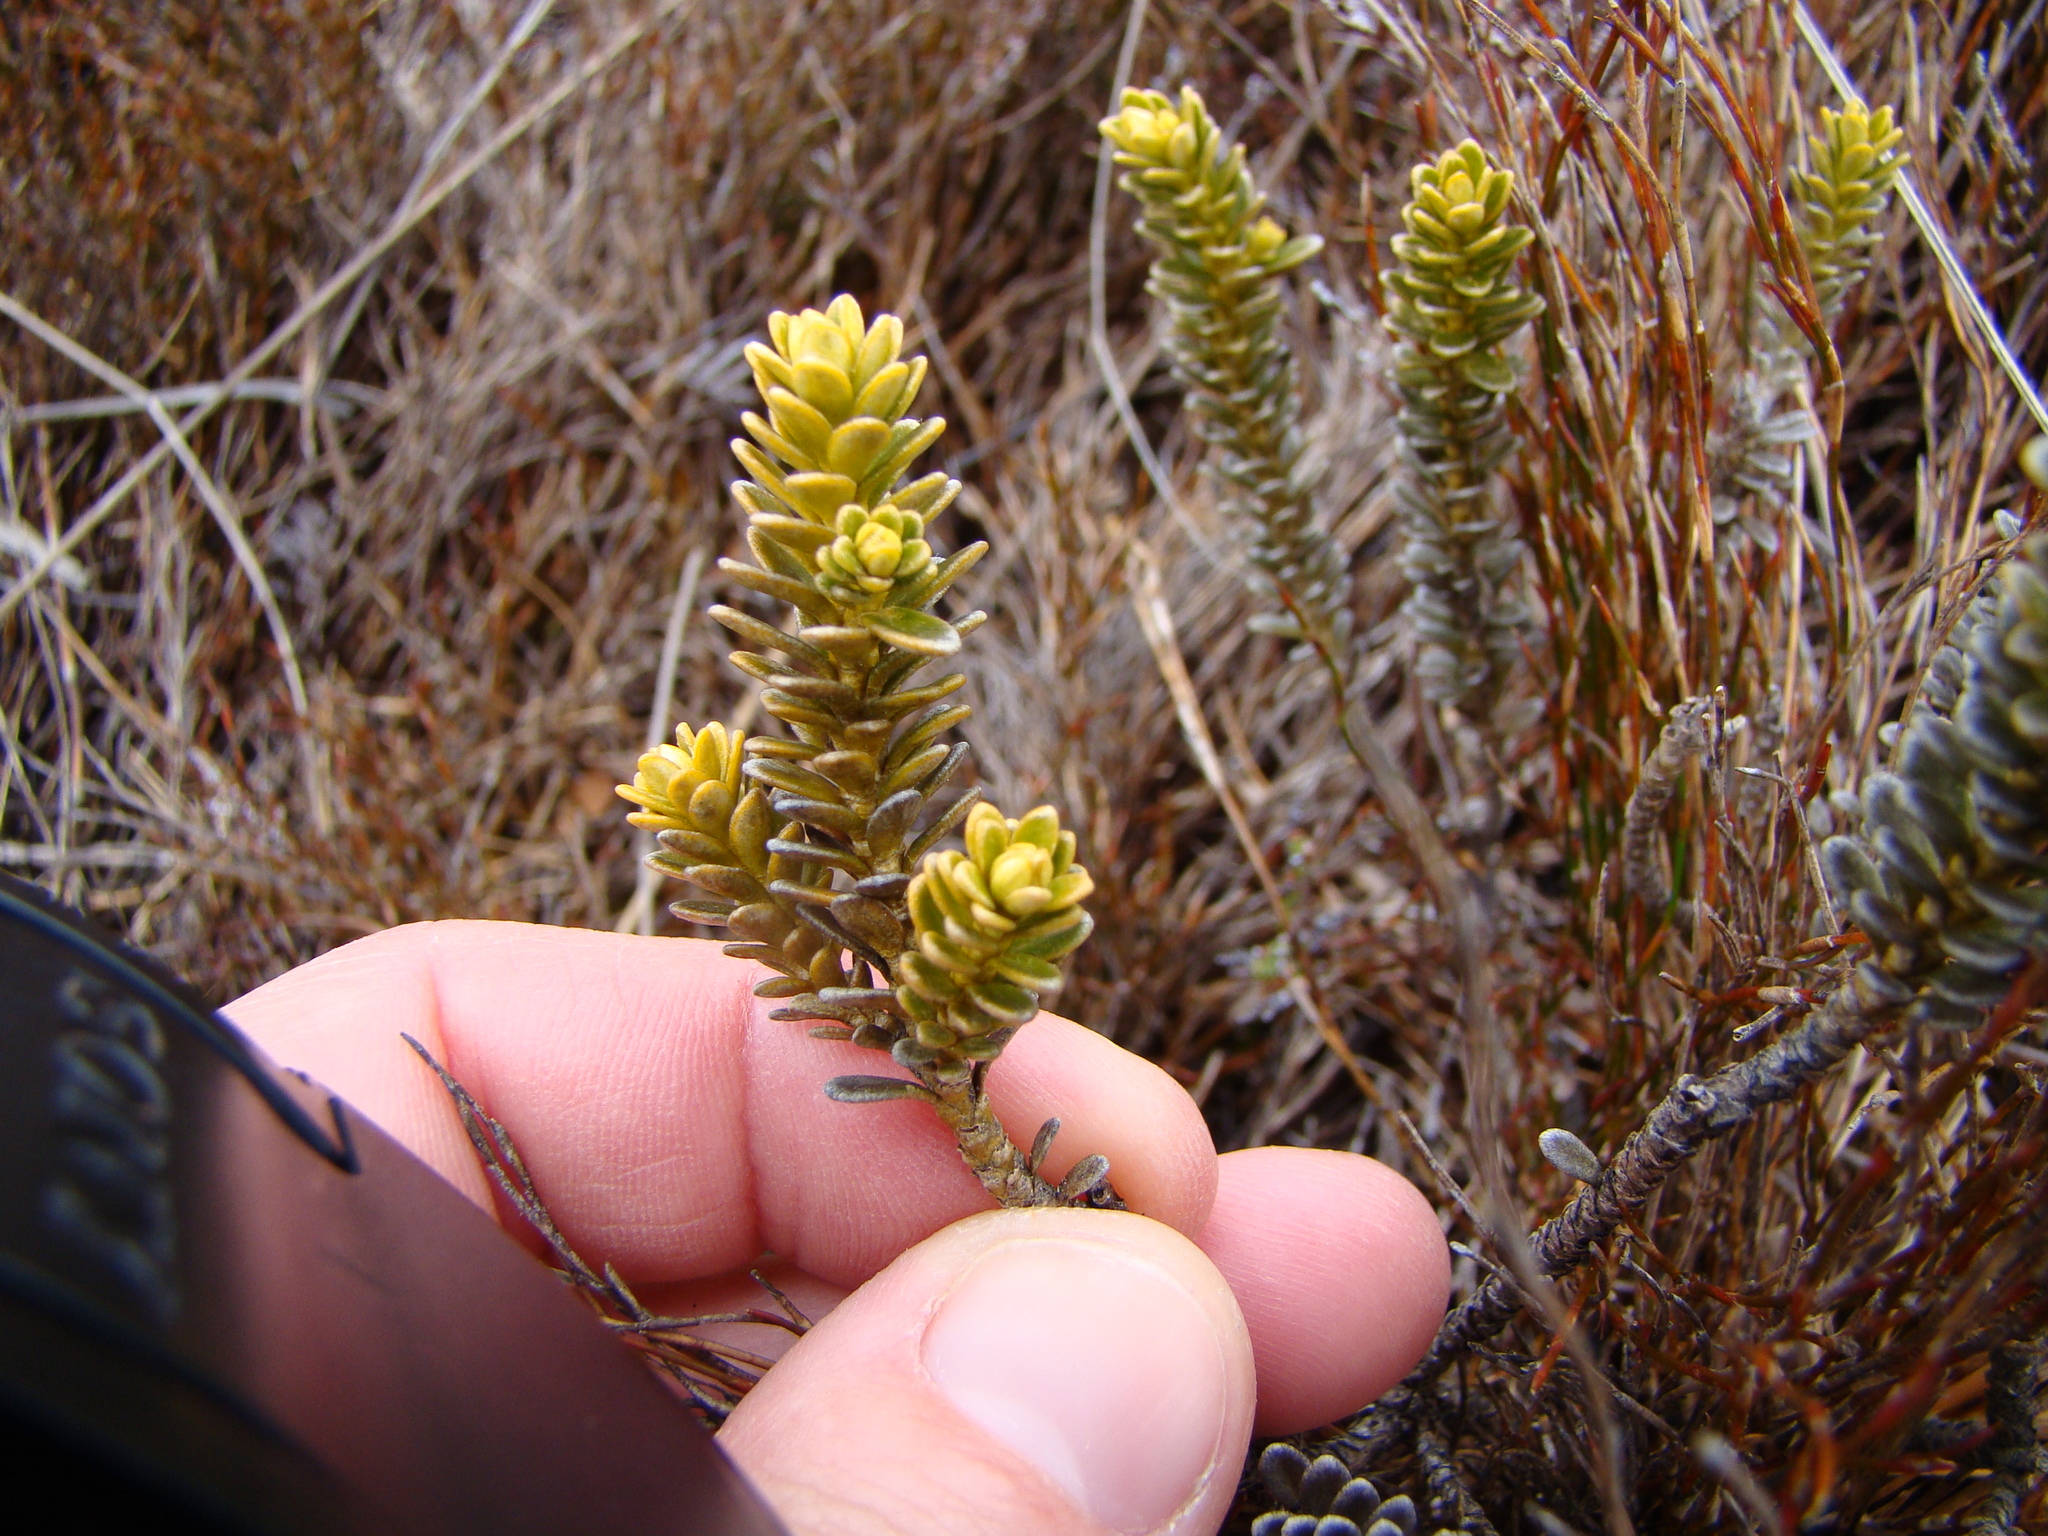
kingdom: Plantae
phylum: Tracheophyta
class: Magnoliopsida
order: Asterales
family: Asteraceae
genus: Olearia
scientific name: Olearia nummularifolia
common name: Sticky daisybush
